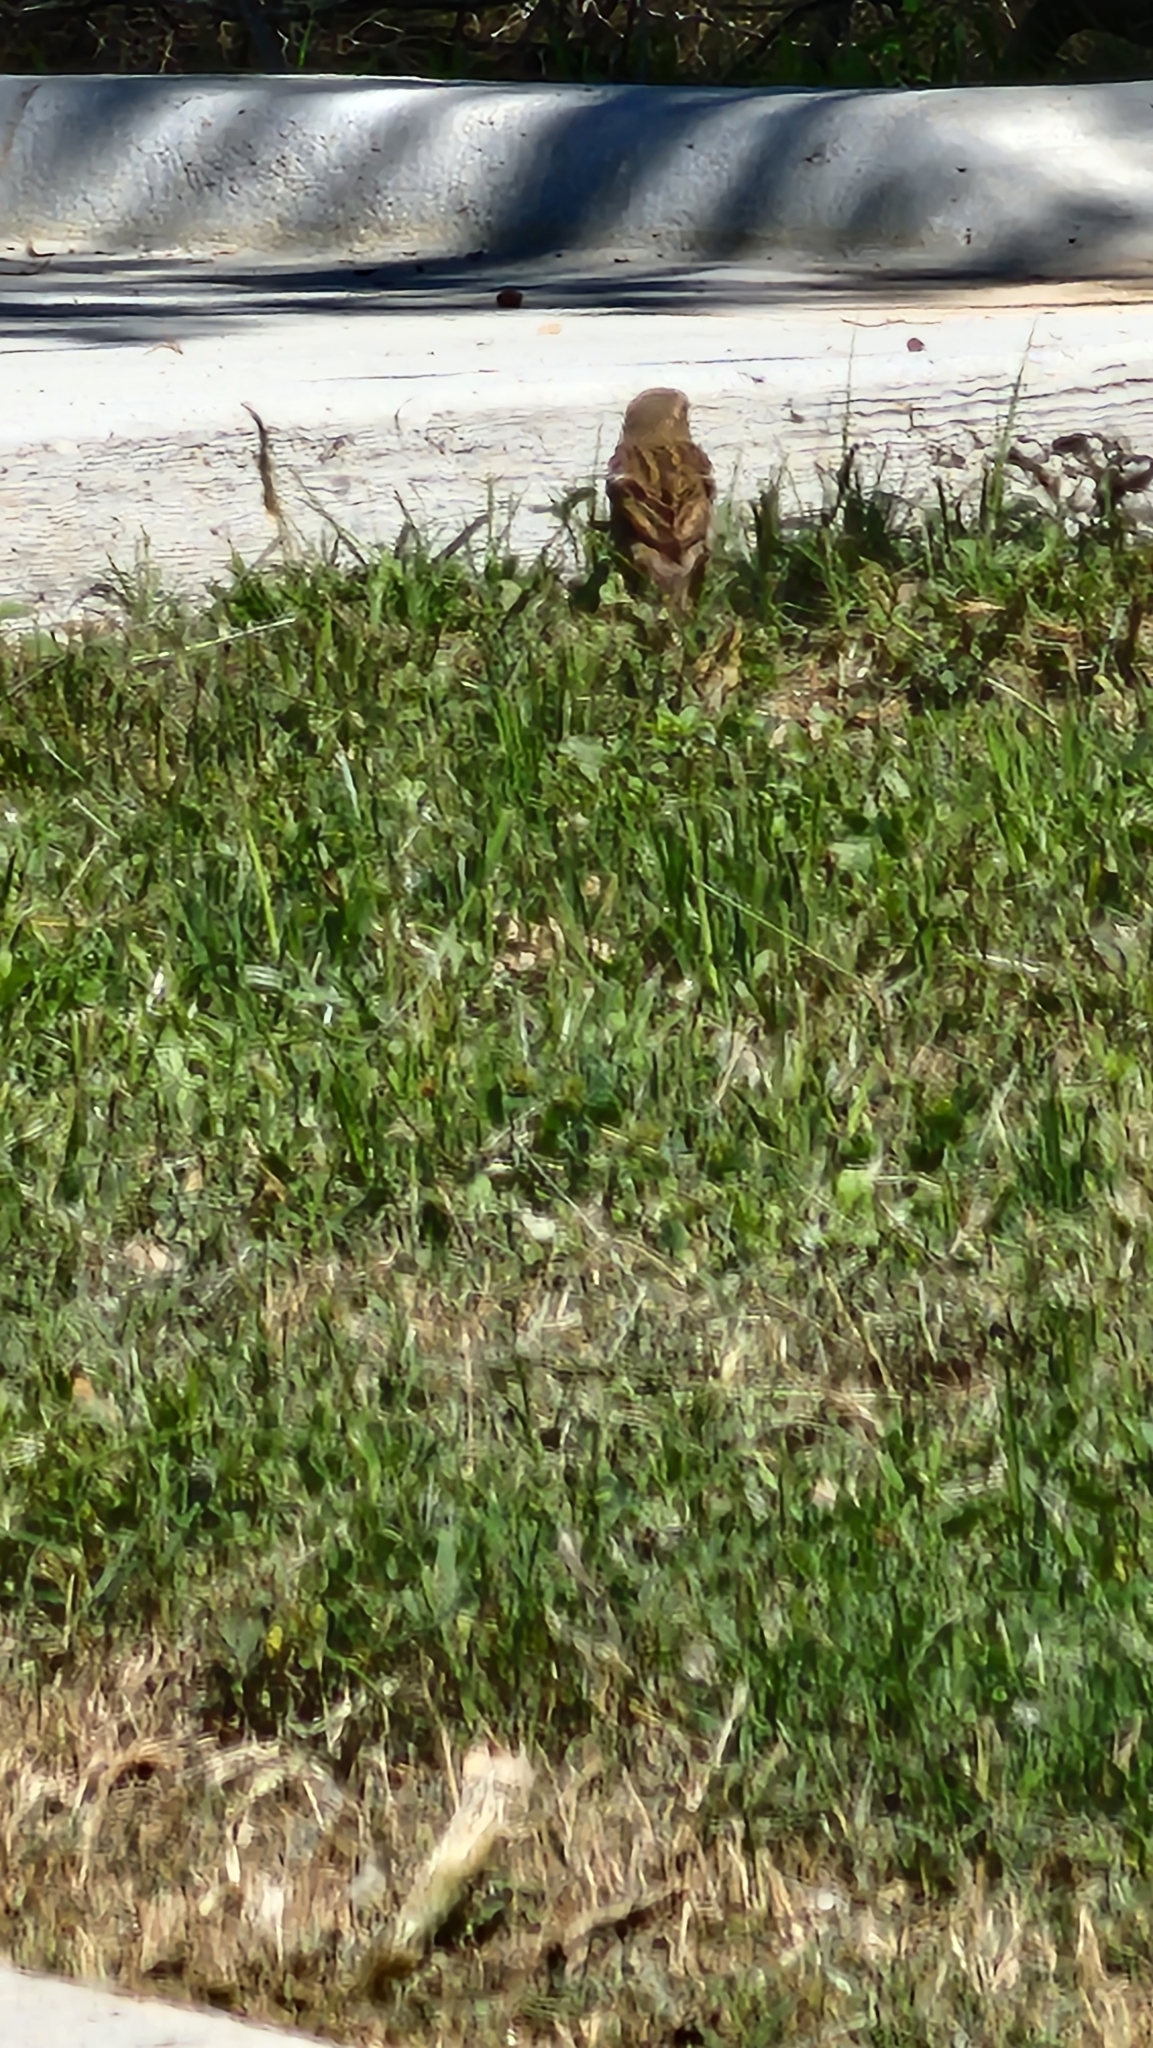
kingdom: Animalia
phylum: Chordata
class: Aves
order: Passeriformes
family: Passerellidae
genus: Passerculus
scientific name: Passerculus sandwichensis
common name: Savannah sparrow
